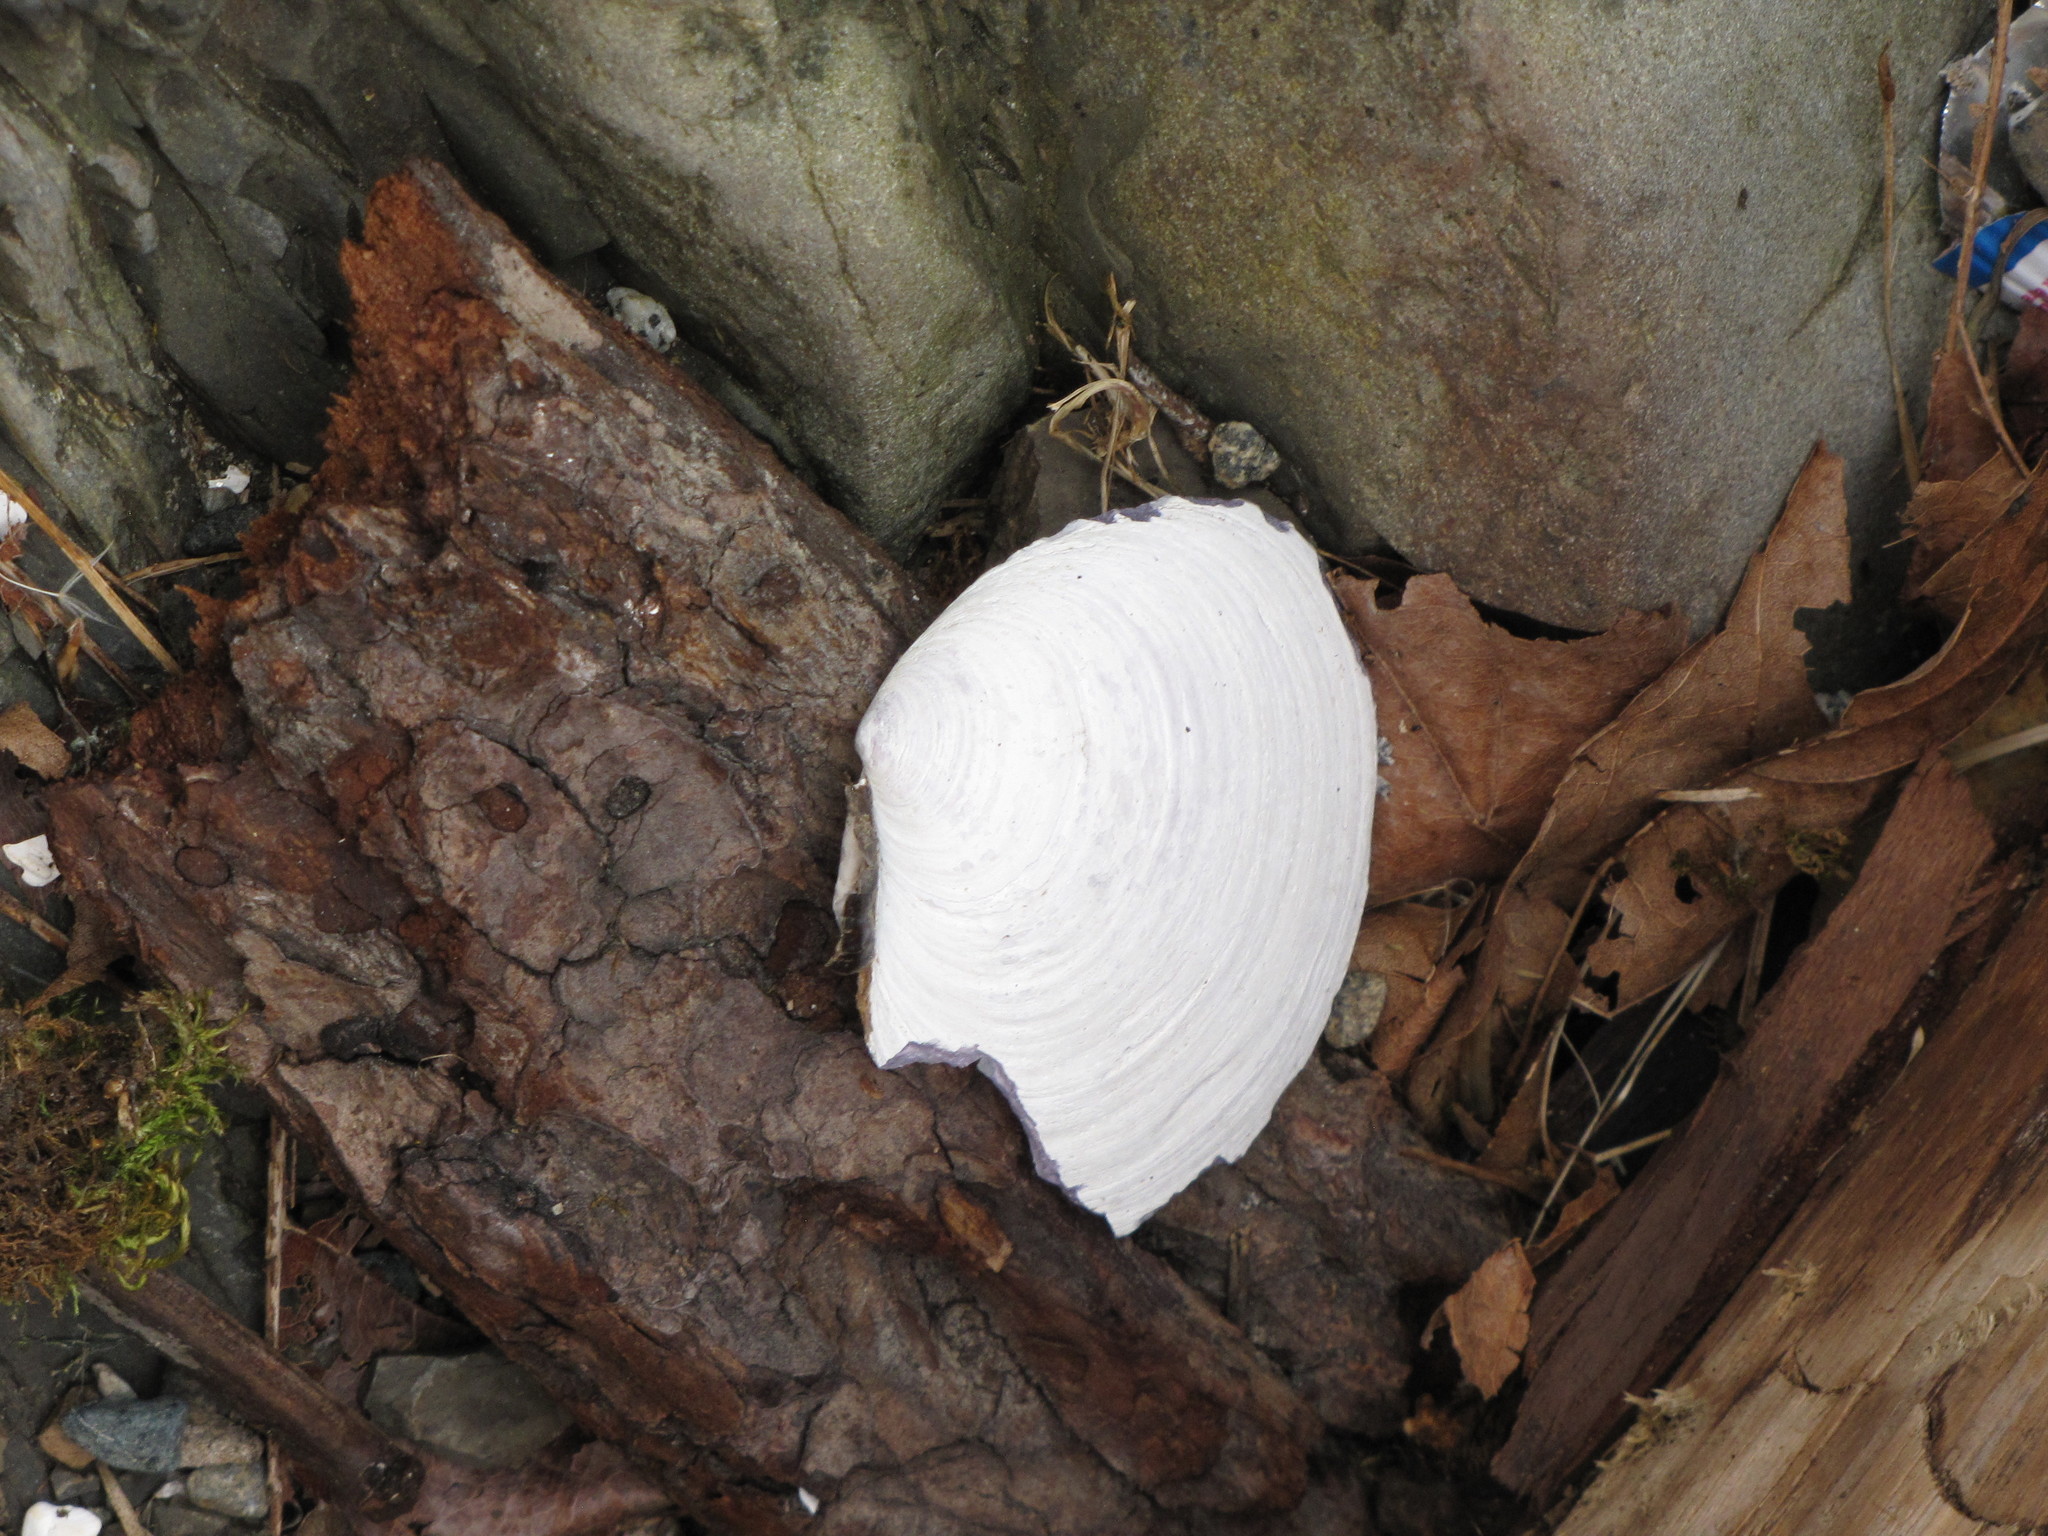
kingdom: Animalia
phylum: Mollusca
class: Bivalvia
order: Cardiida
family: Psammobiidae
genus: Nuttallia
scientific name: Nuttallia obscurata
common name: Purple mahogany-clam
